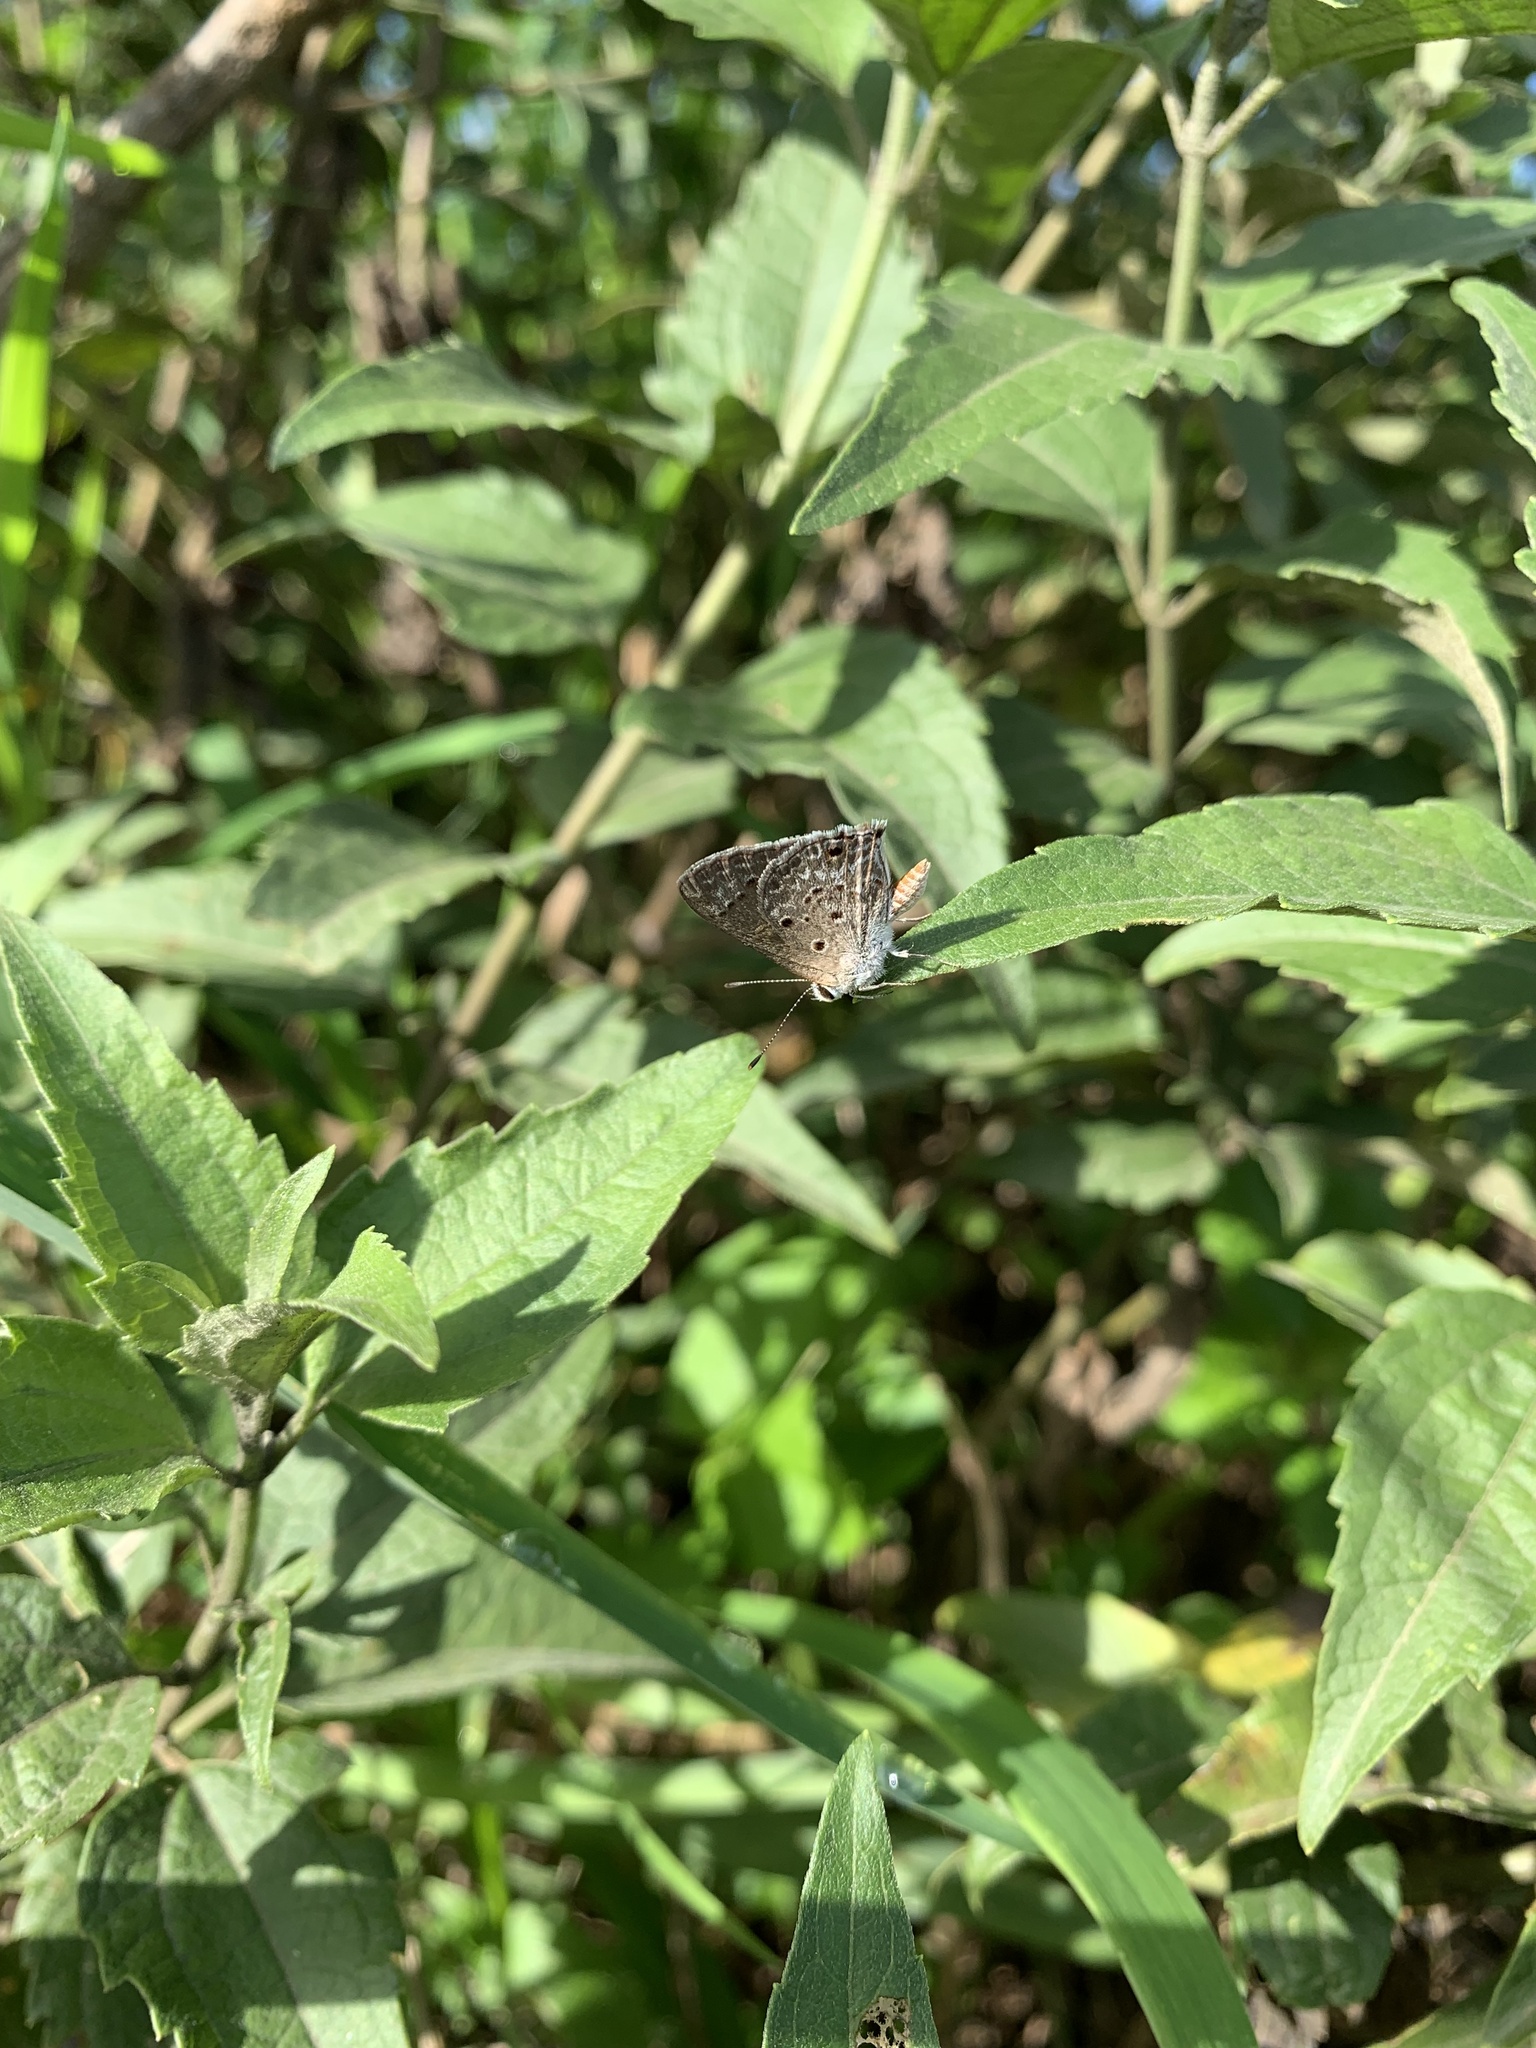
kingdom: Animalia
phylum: Arthropoda
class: Insecta
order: Lepidoptera
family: Lycaenidae
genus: Strymon
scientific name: Strymon bubastus
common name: Bubastes hairstreak
